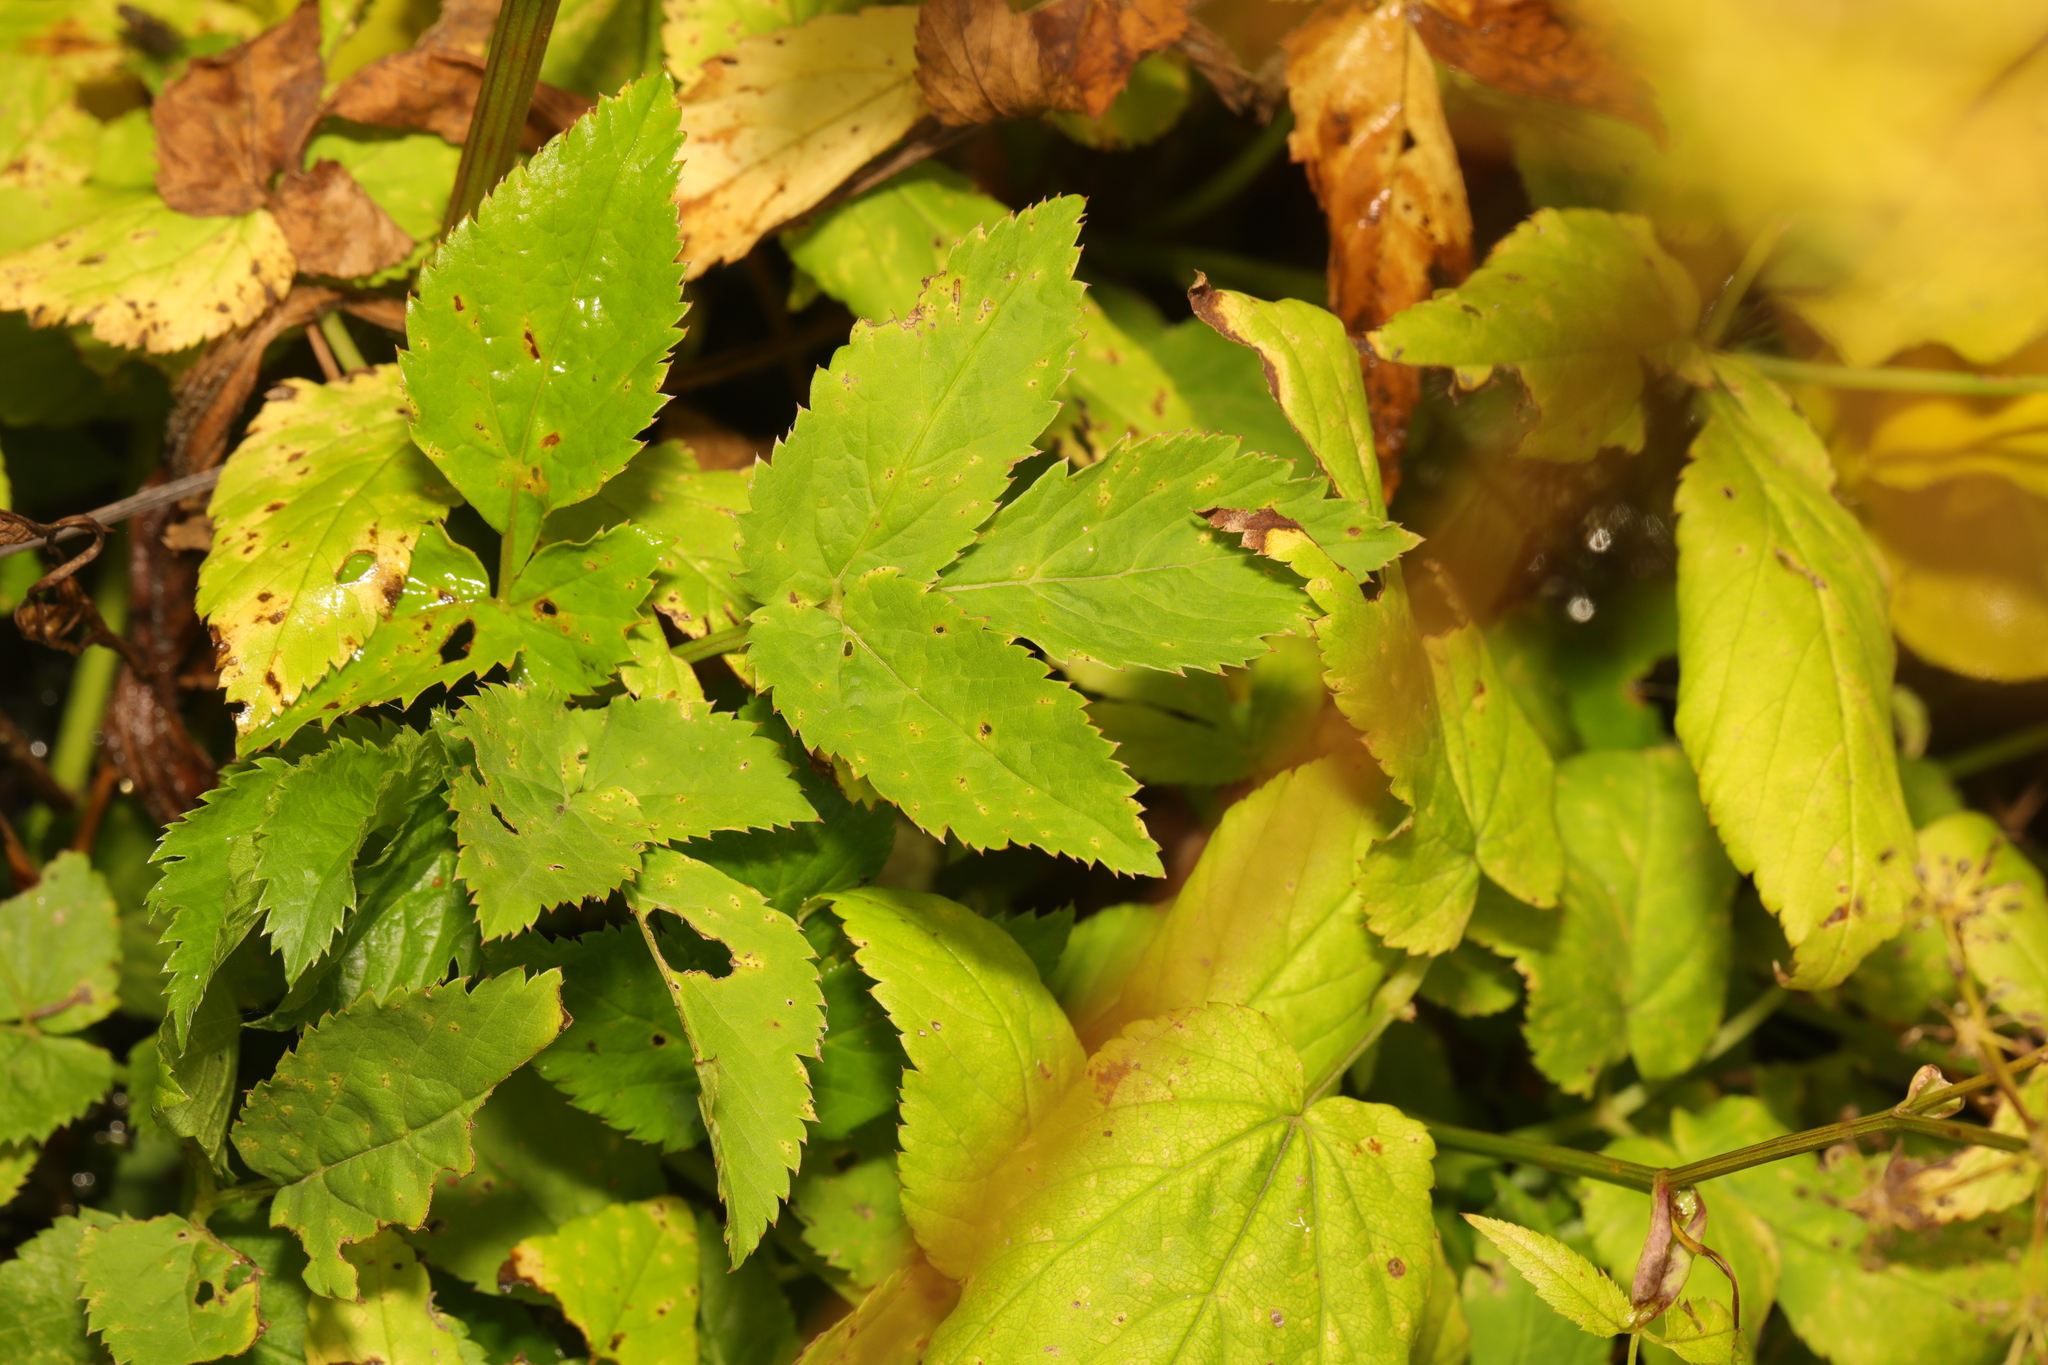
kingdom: Plantae
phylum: Tracheophyta
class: Magnoliopsida
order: Apiales
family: Apiaceae
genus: Aegopodium
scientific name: Aegopodium podagraria
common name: Ground-elder
